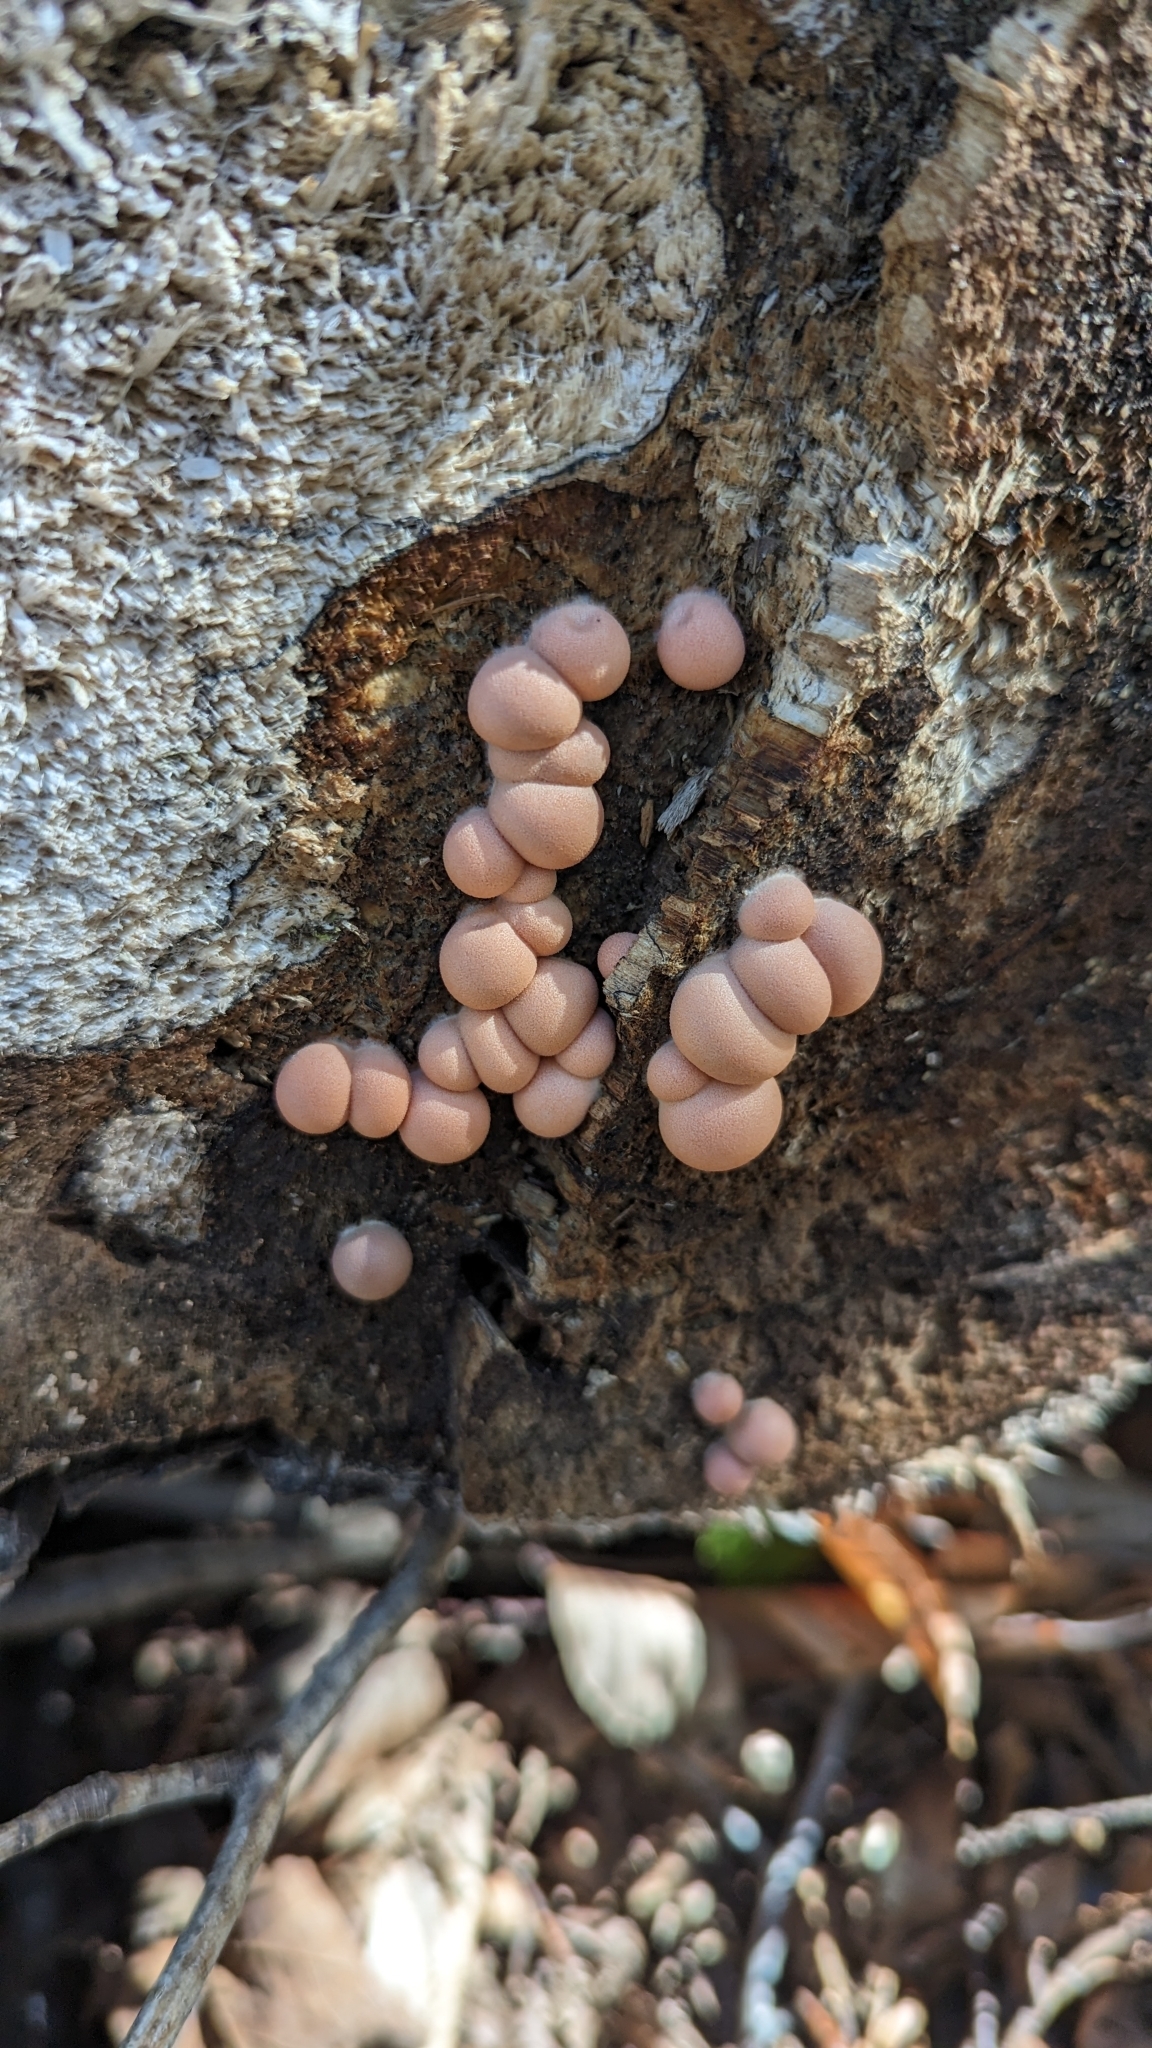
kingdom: Protozoa
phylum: Mycetozoa
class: Myxomycetes
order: Cribrariales
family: Tubiferaceae
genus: Lycogala
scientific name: Lycogala epidendrum
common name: Wolf's milk
